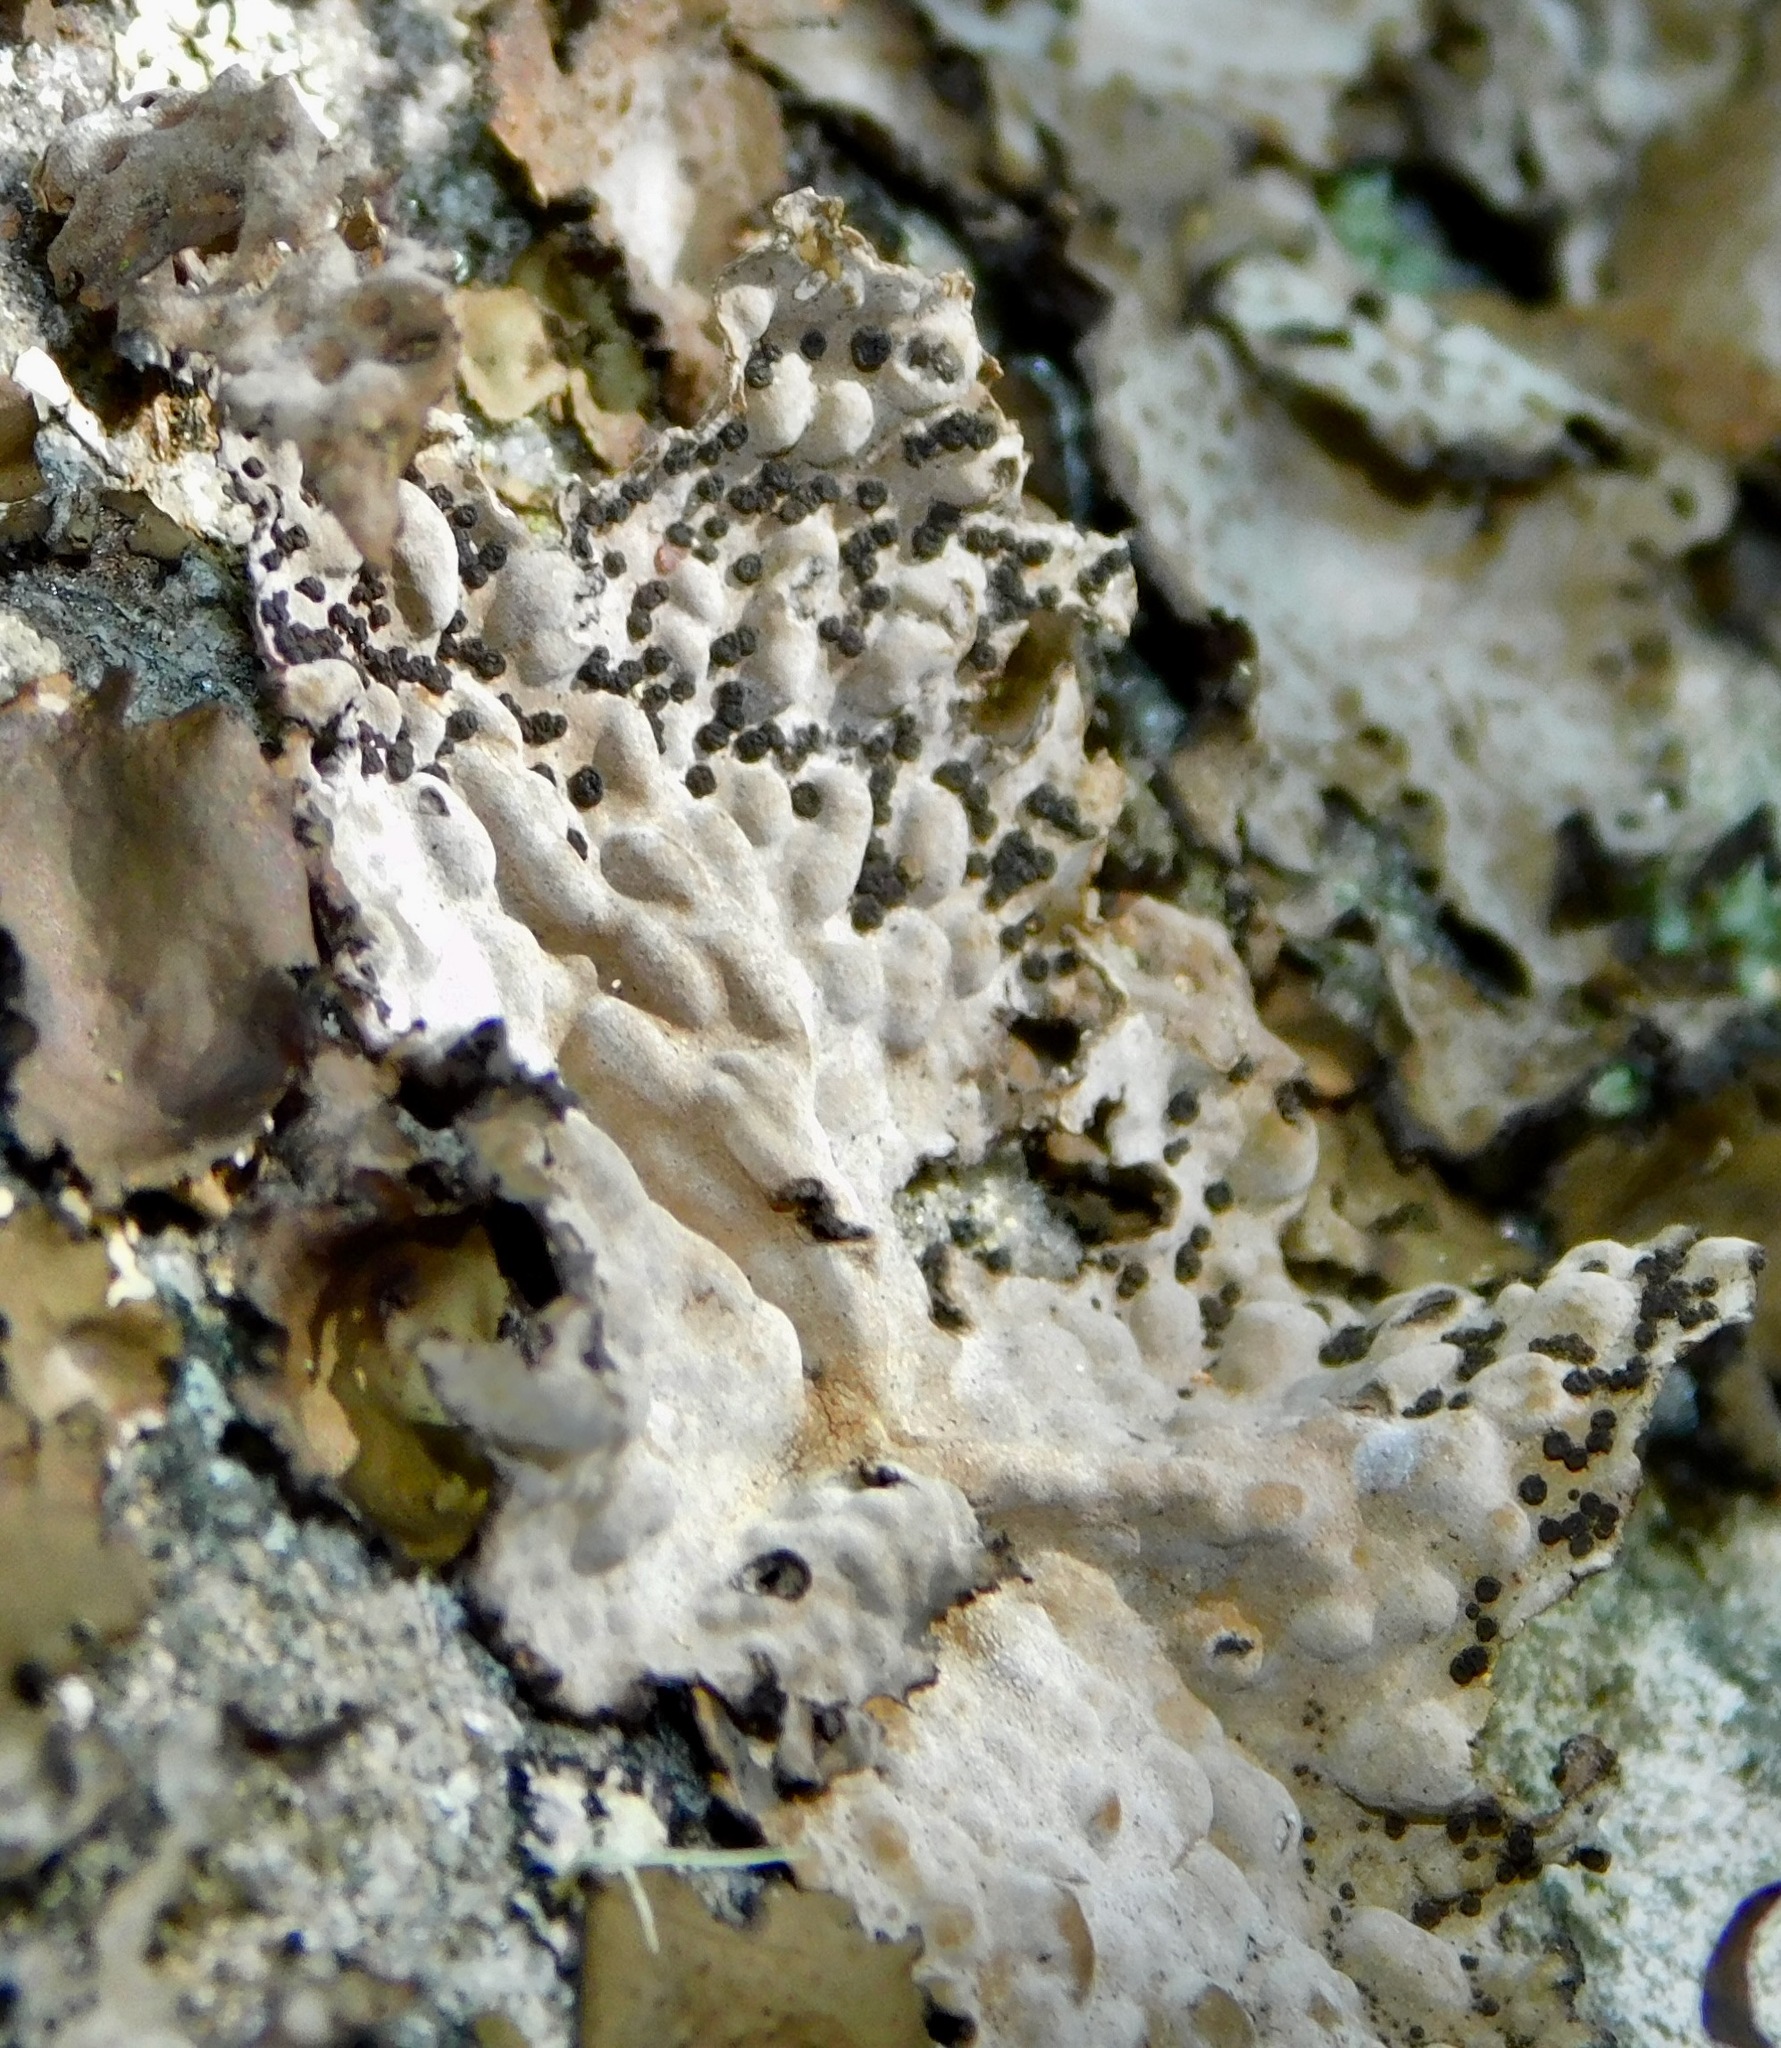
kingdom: Fungi
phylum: Ascomycota
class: Lecanoromycetes
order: Umbilicariales
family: Umbilicariaceae
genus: Lasallia
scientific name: Lasallia papulosa
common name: Common toadskin lichen
